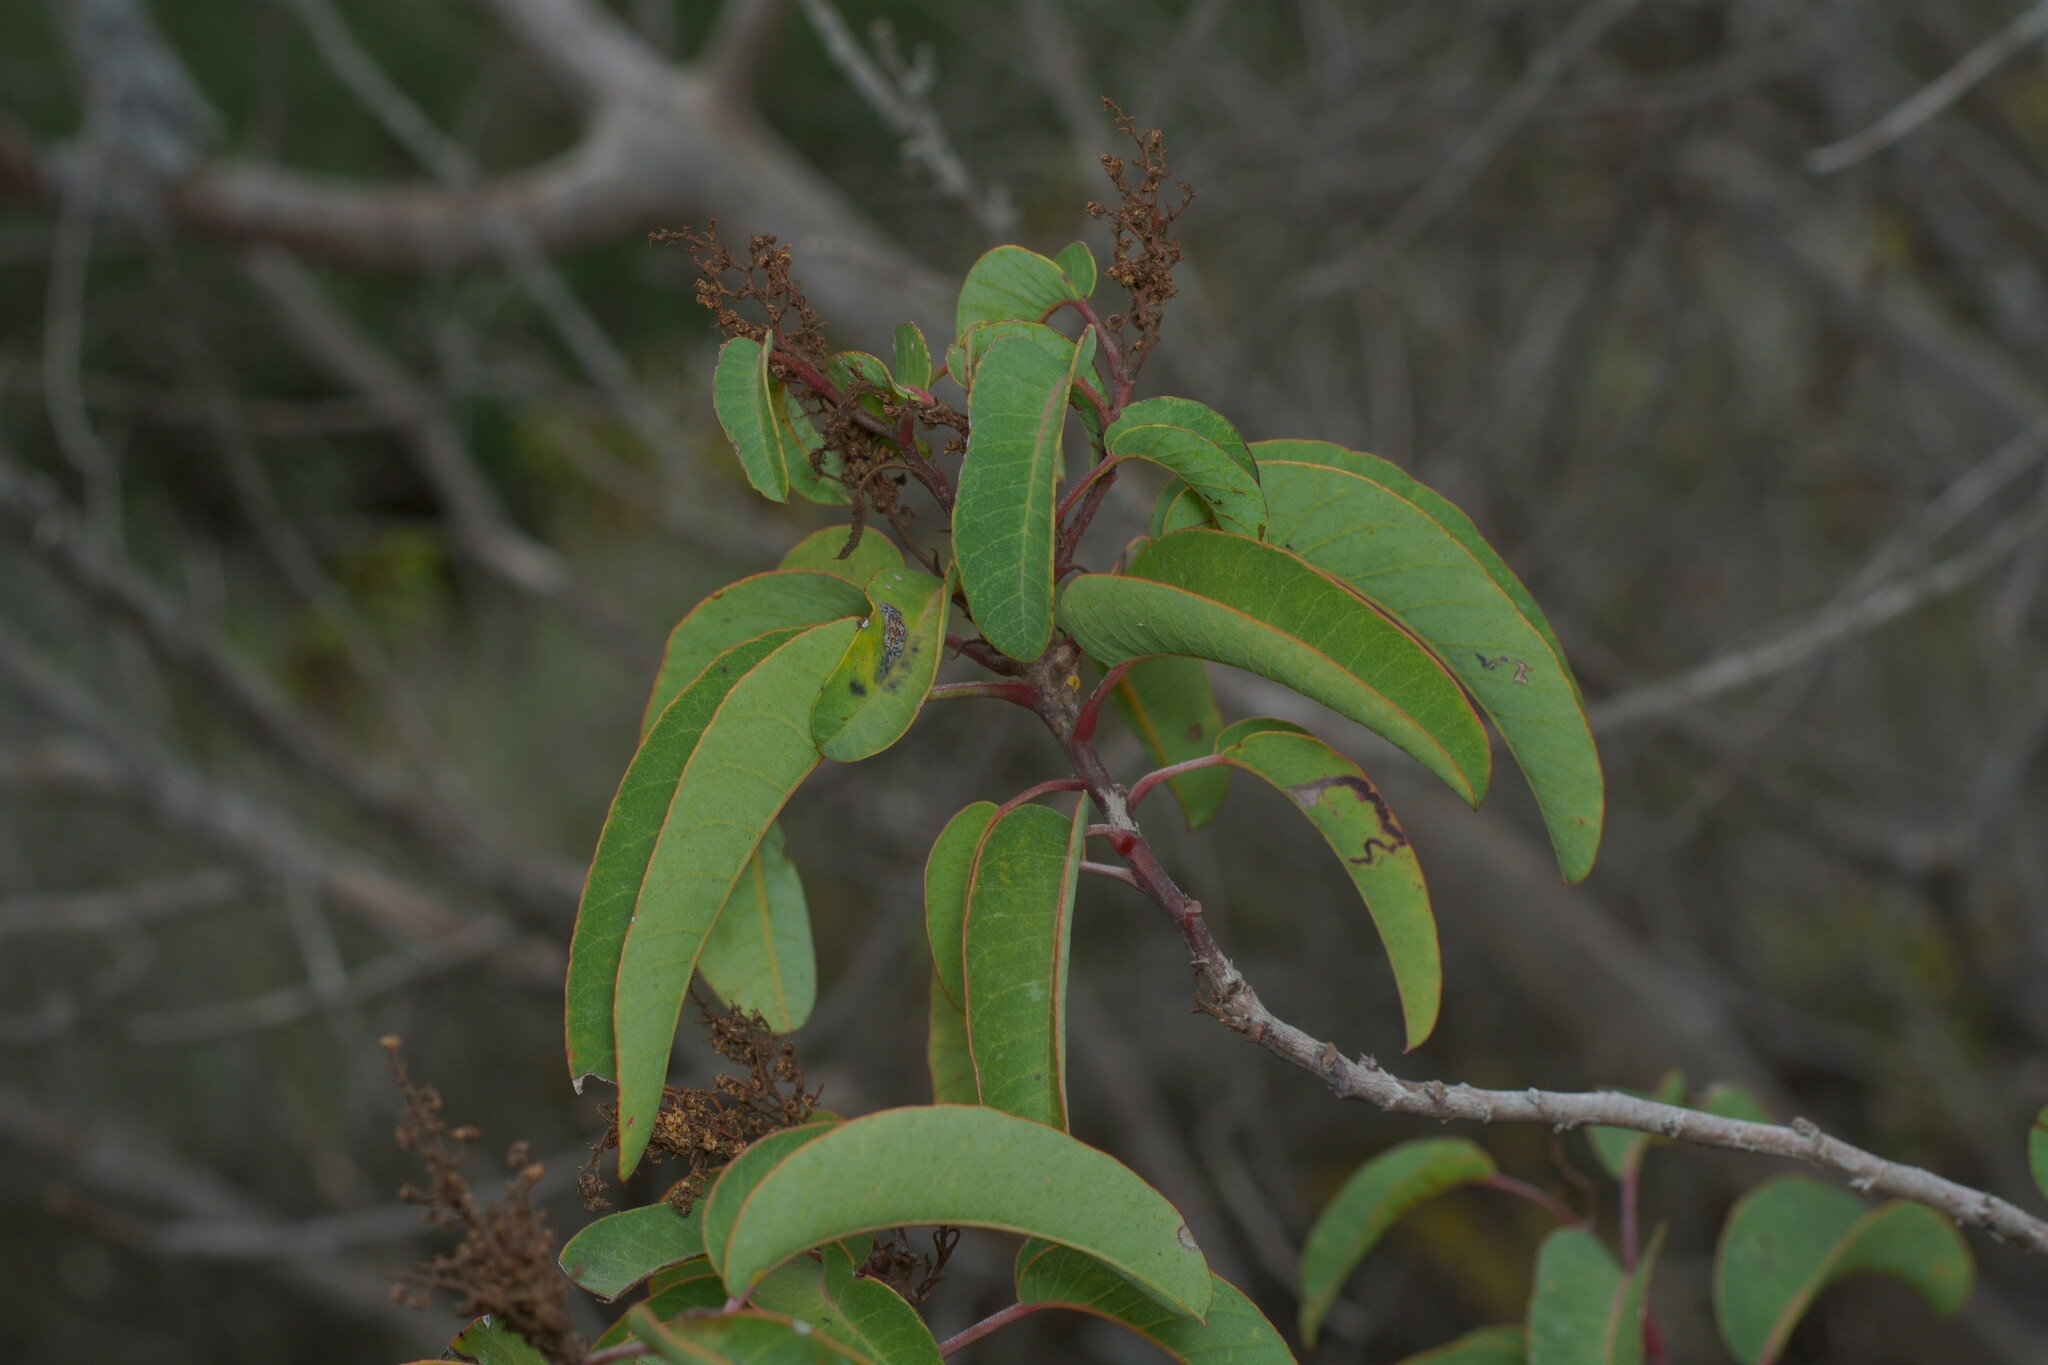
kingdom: Plantae
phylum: Tracheophyta
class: Magnoliopsida
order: Sapindales
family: Anacardiaceae
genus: Malosma
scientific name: Malosma laurina
